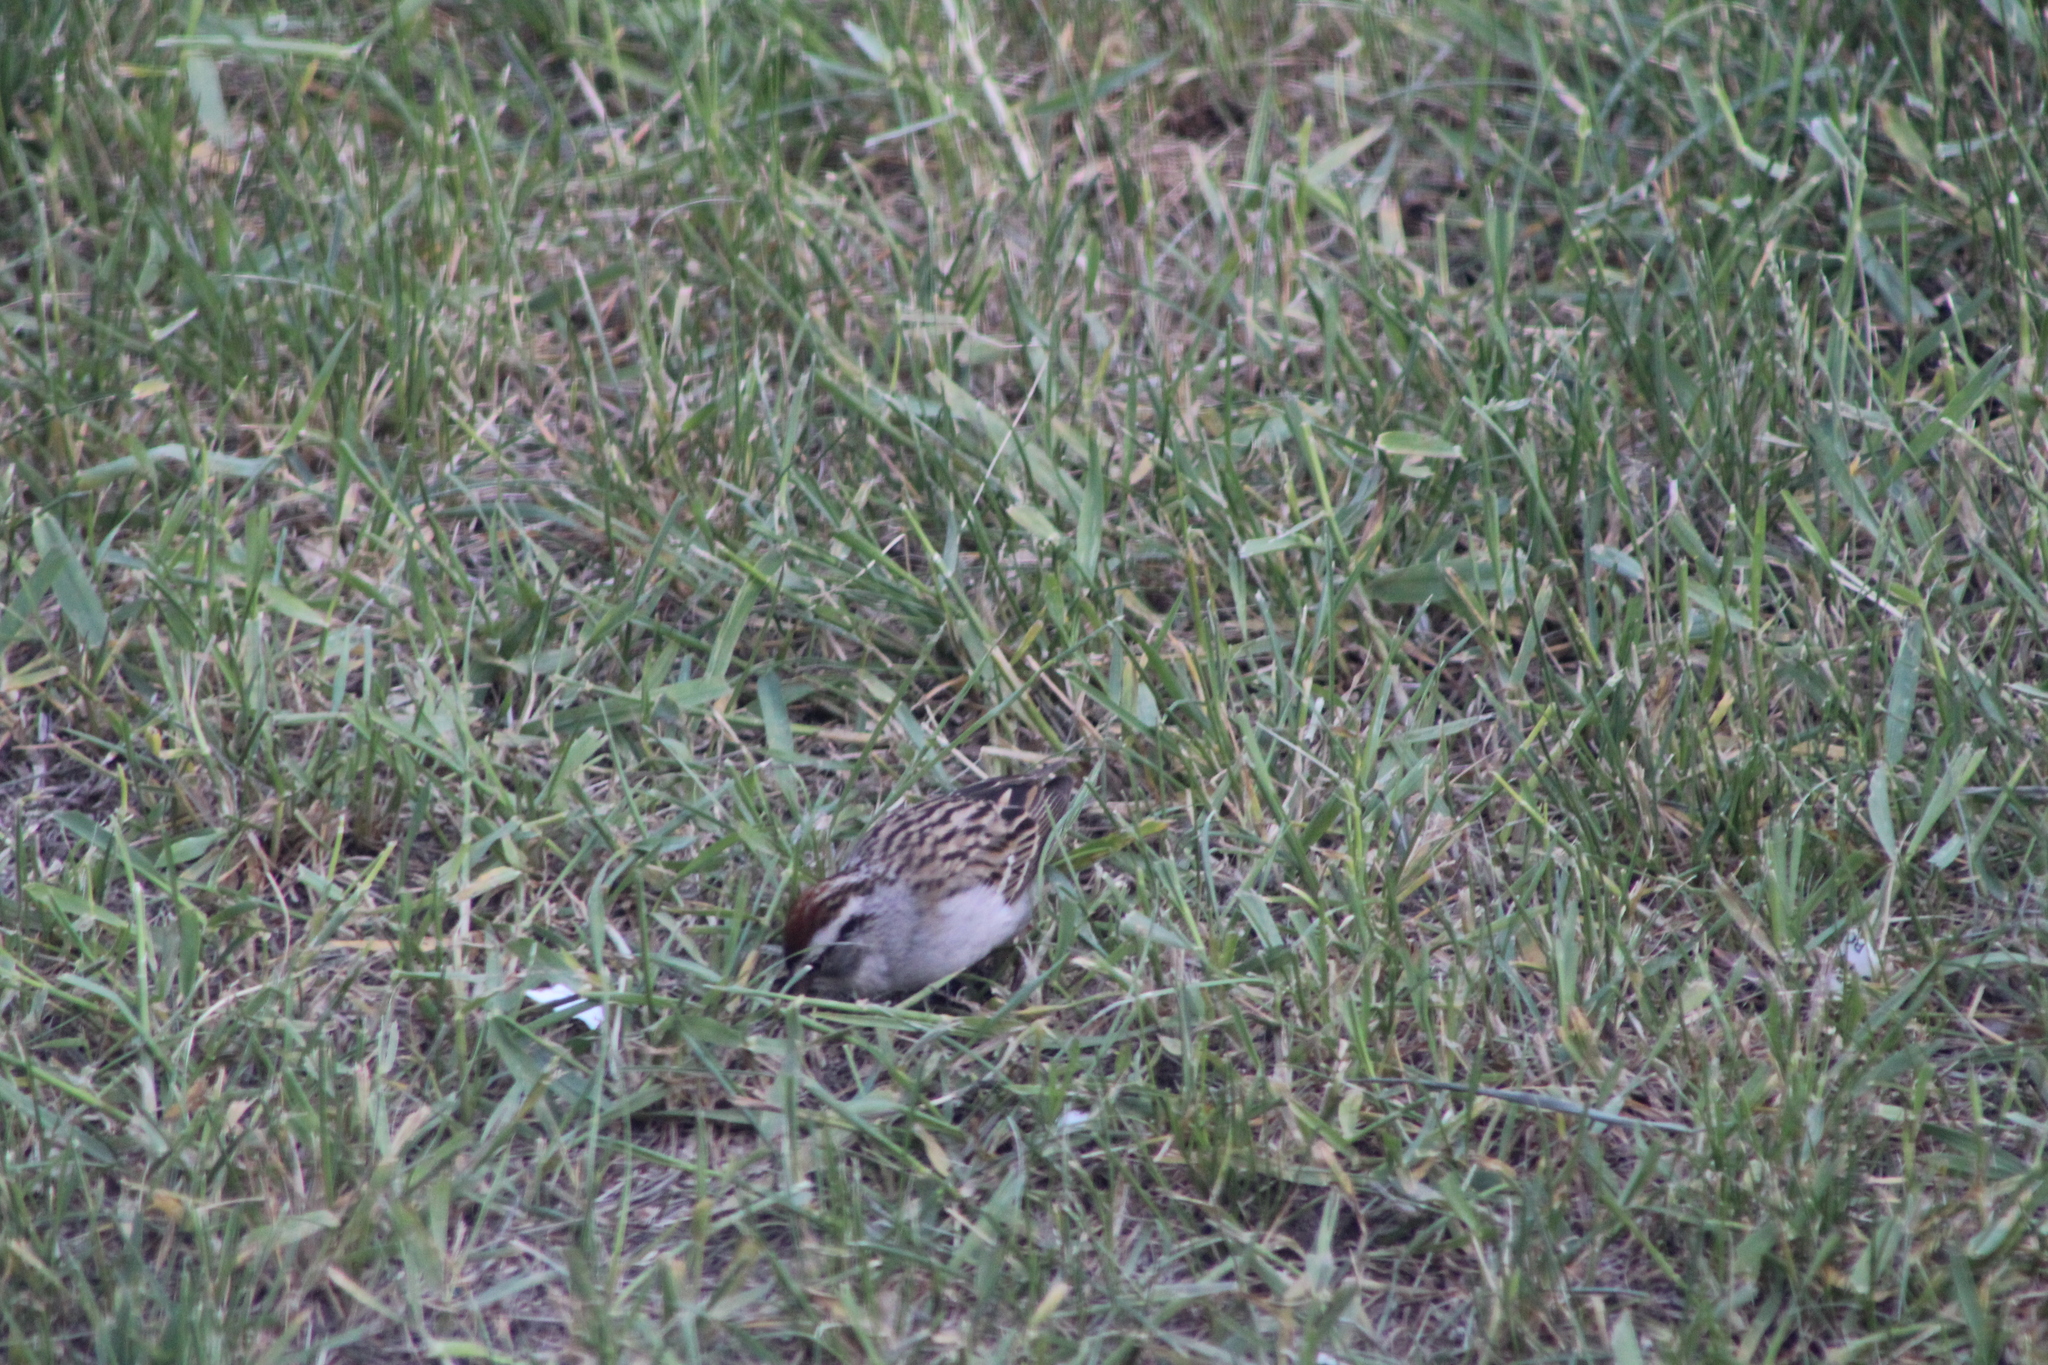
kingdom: Animalia
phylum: Chordata
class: Aves
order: Passeriformes
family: Passerellidae
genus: Spizella
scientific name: Spizella passerina
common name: Chipping sparrow
